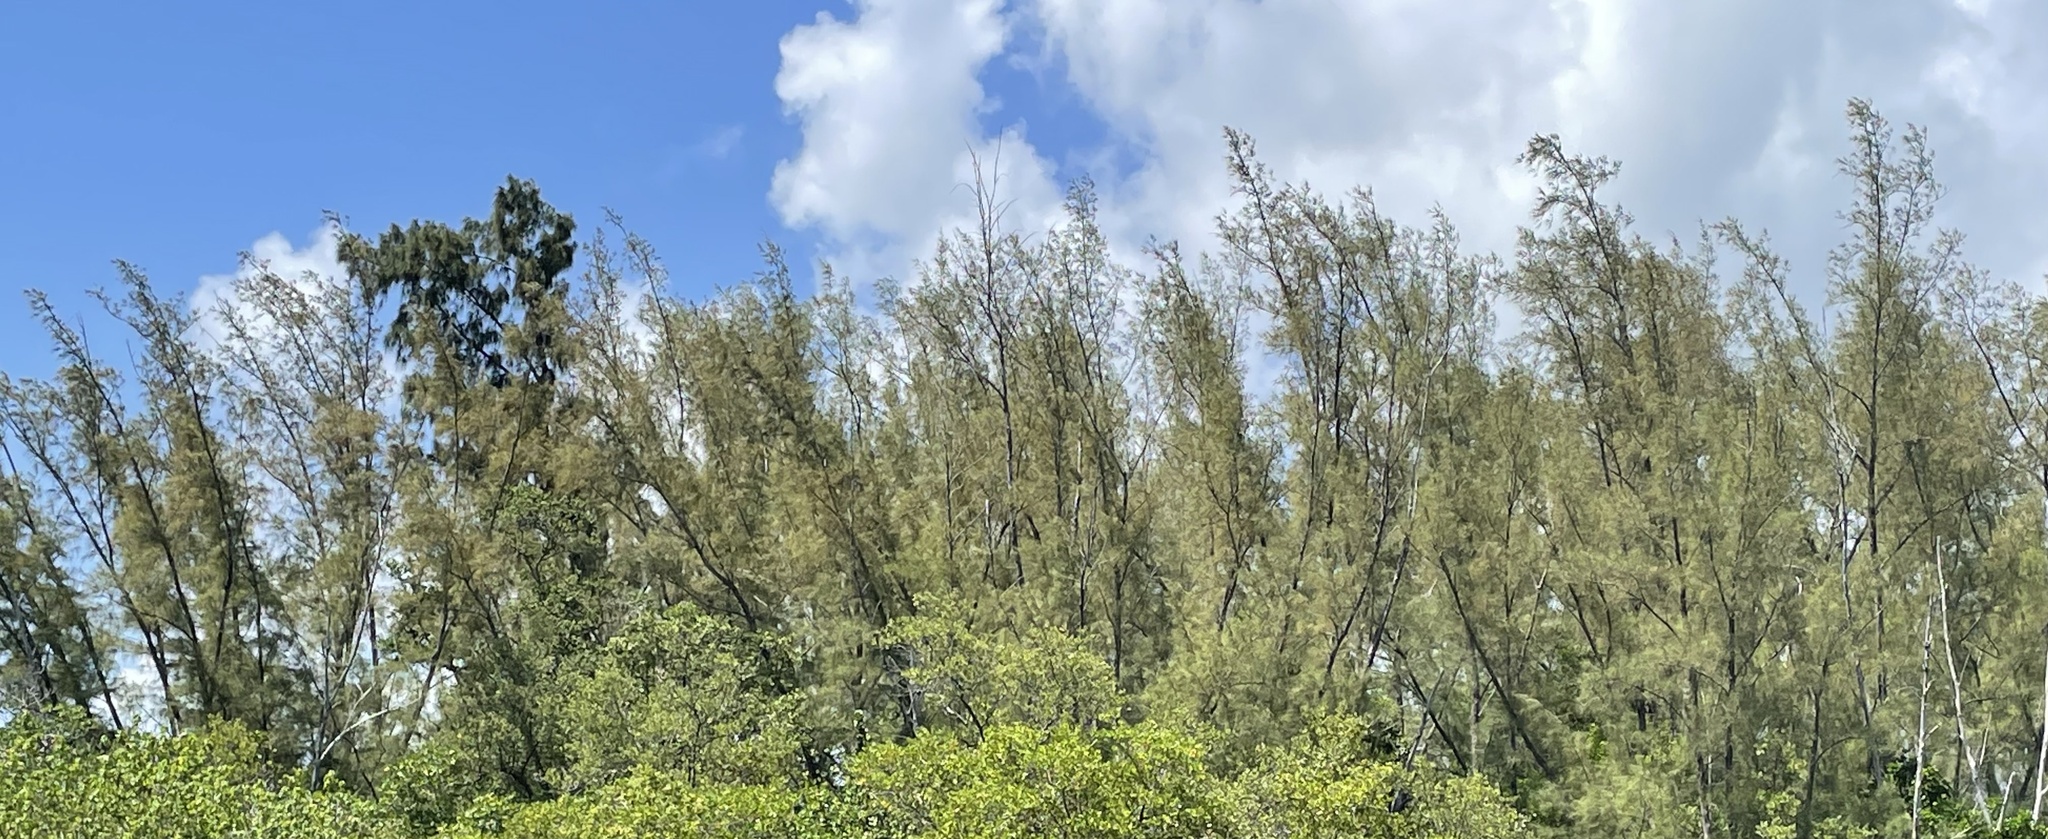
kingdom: Plantae
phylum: Tracheophyta
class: Magnoliopsida
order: Fagales
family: Casuarinaceae
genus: Casuarina
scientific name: Casuarina equisetifolia
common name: Beach sheoak
